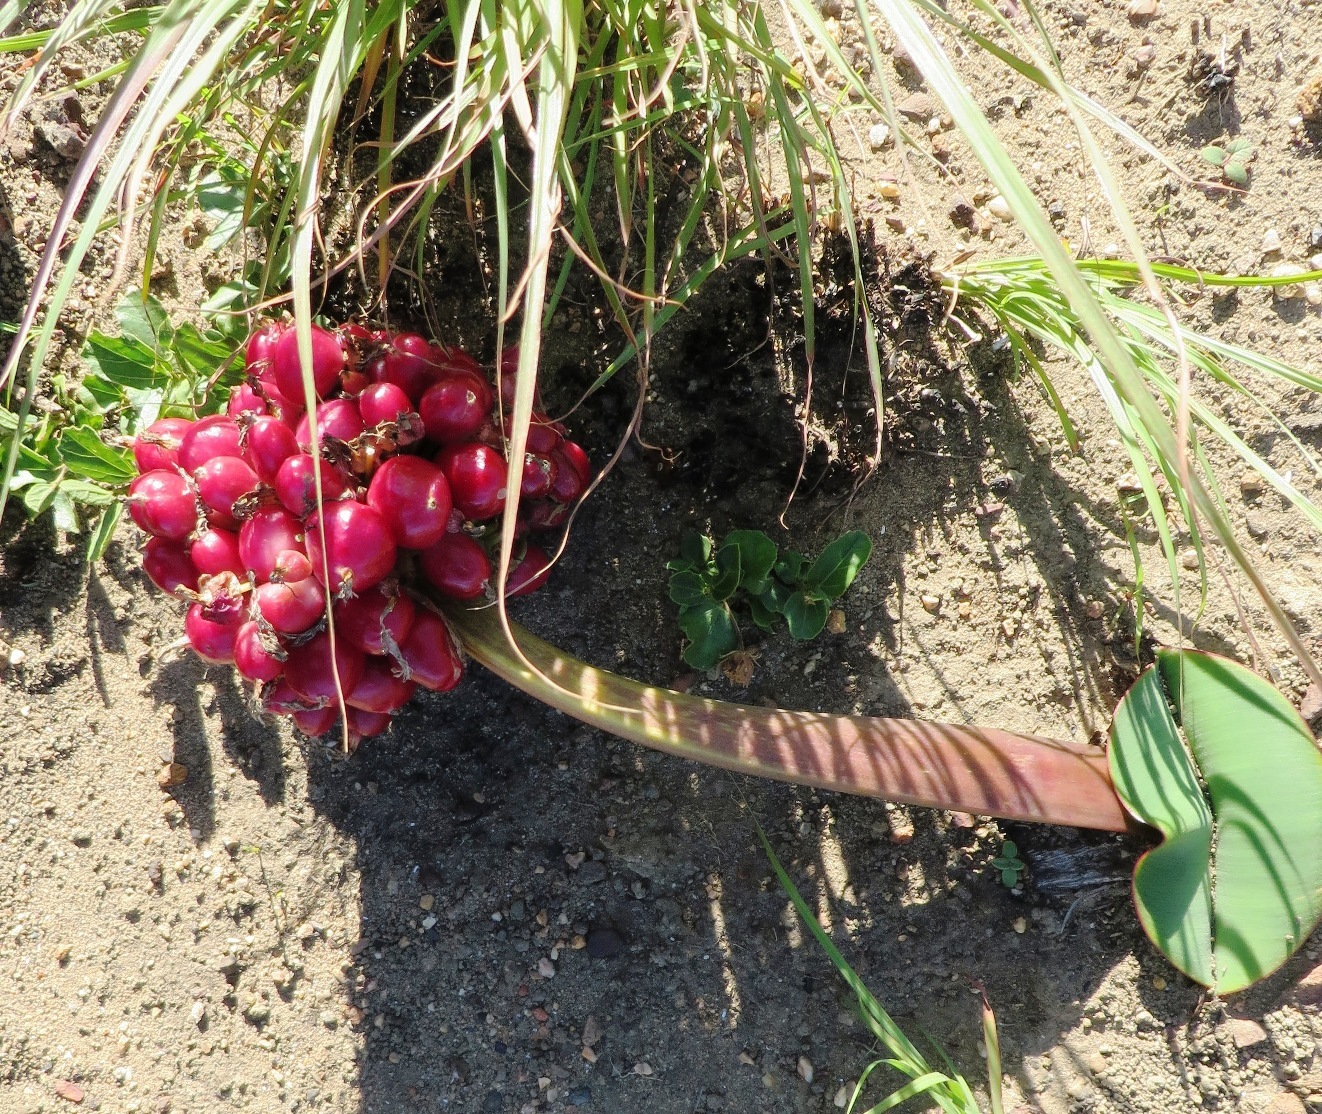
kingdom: Plantae
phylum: Tracheophyta
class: Liliopsida
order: Asparagales
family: Amaryllidaceae
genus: Haemanthus
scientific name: Haemanthus sanguineus
